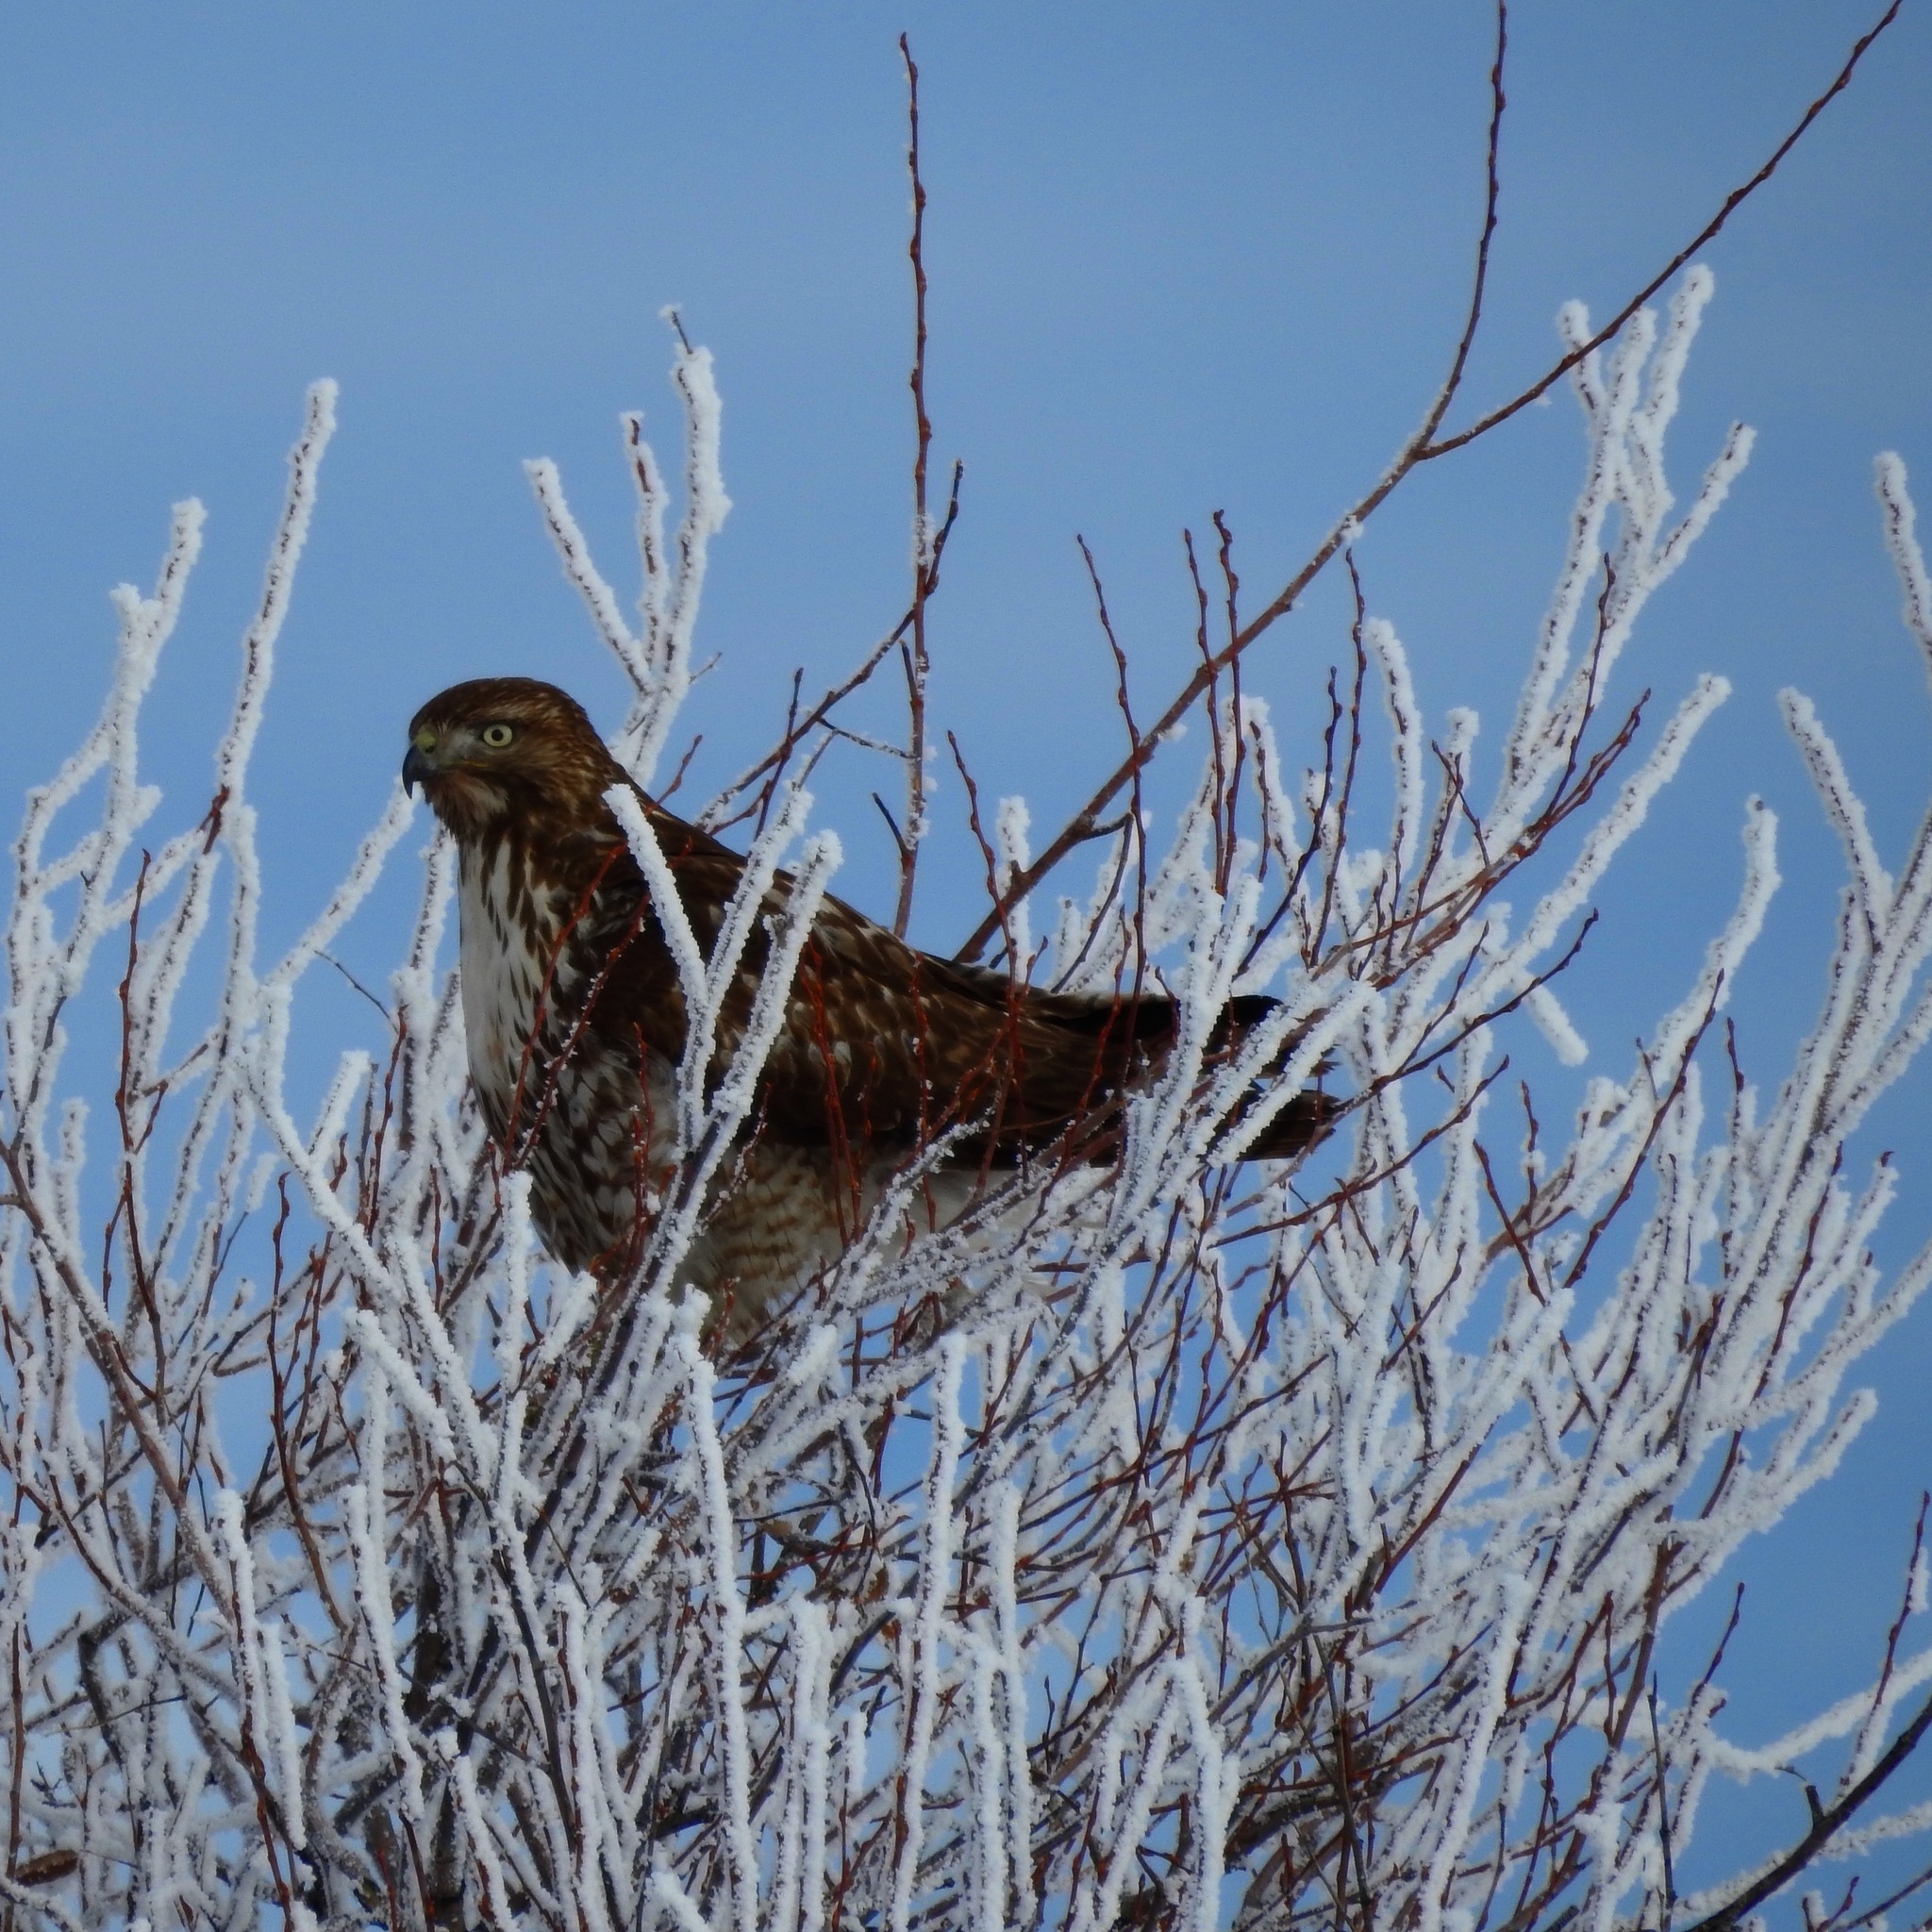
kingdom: Animalia
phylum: Chordata
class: Aves
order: Accipitriformes
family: Accipitridae
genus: Buteo
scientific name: Buteo jamaicensis
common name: Red-tailed hawk
